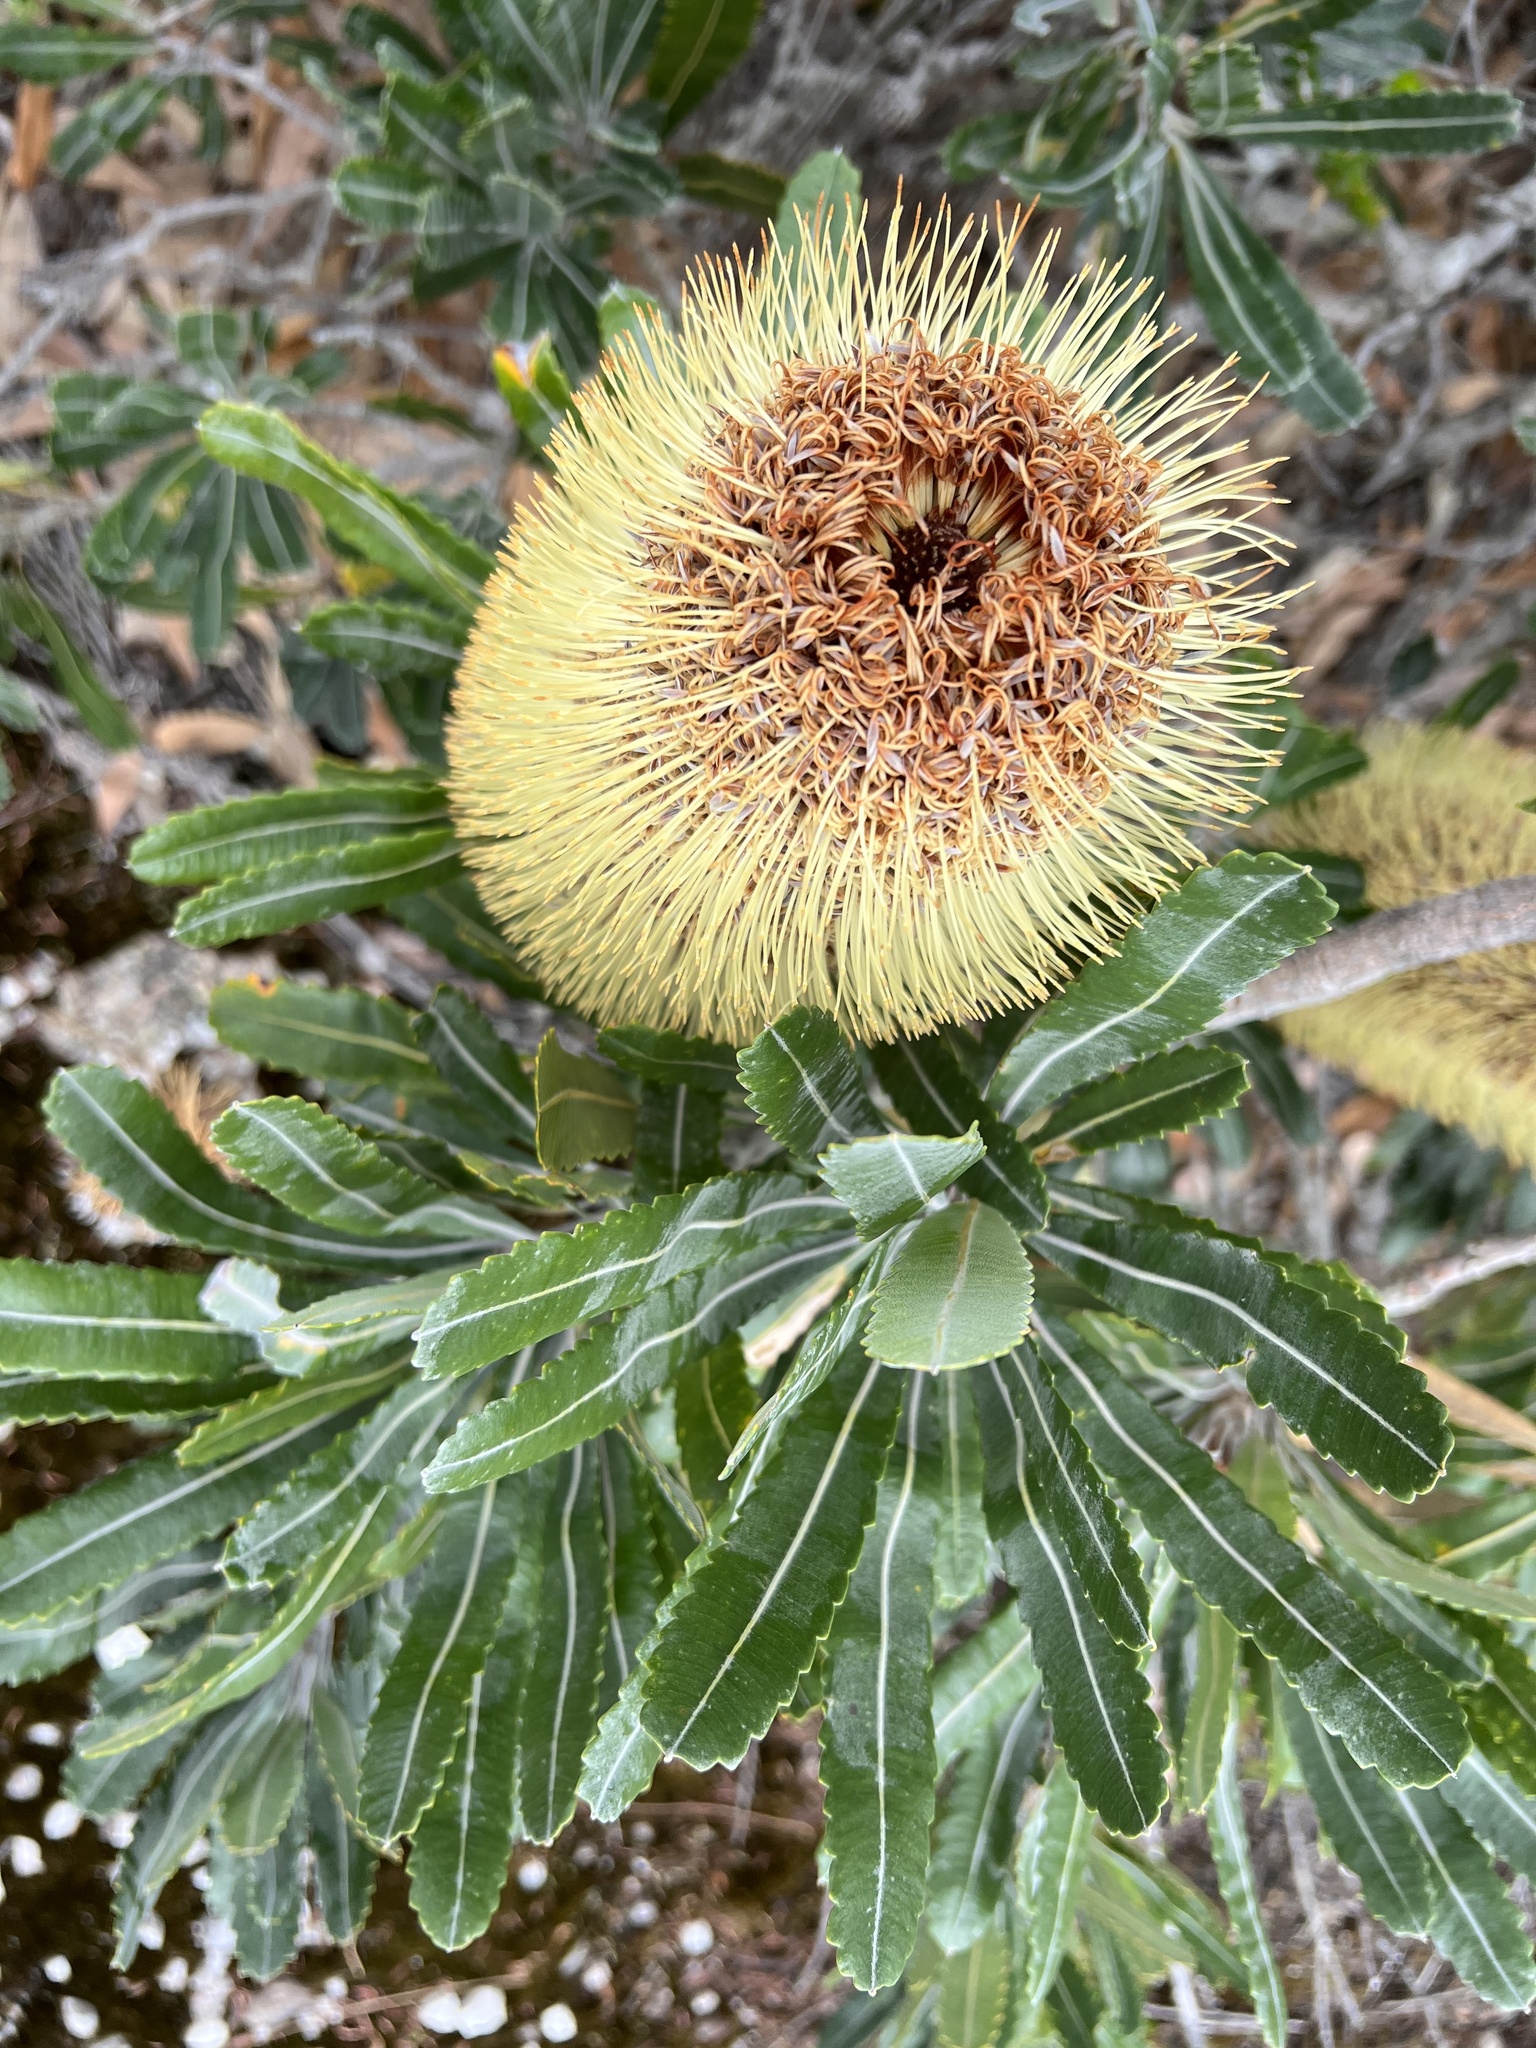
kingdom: Plantae
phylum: Tracheophyta
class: Magnoliopsida
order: Proteales
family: Proteaceae
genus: Banksia
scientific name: Banksia serrata
